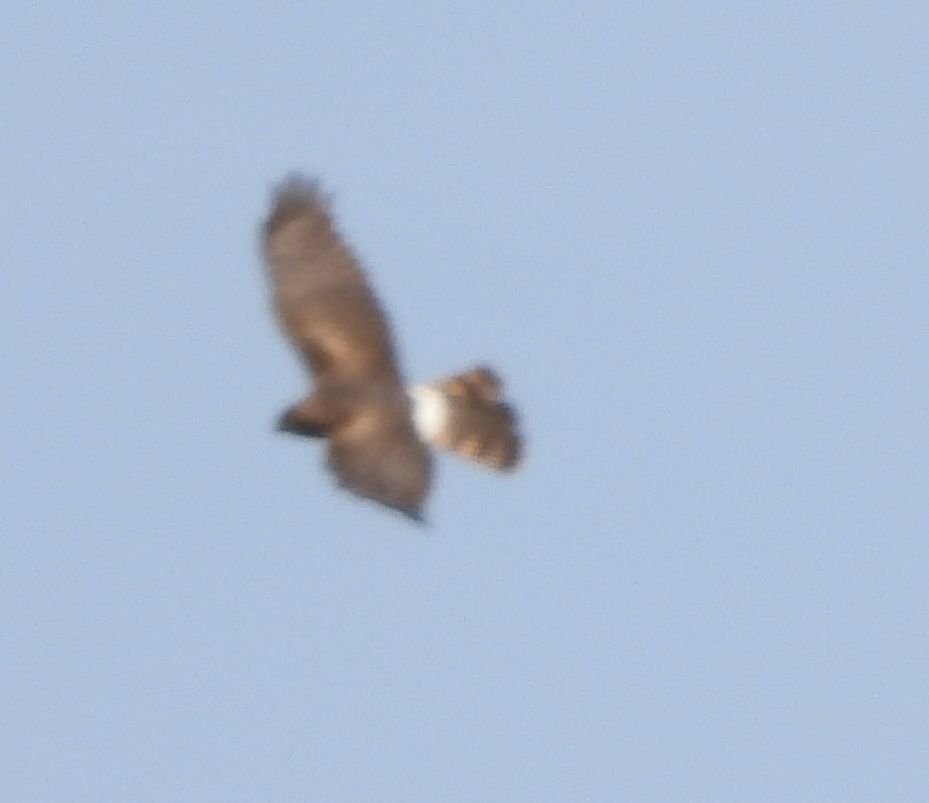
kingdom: Animalia
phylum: Chordata
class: Aves
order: Accipitriformes
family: Accipitridae
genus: Circus
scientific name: Circus cyaneus
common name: Hen harrier
